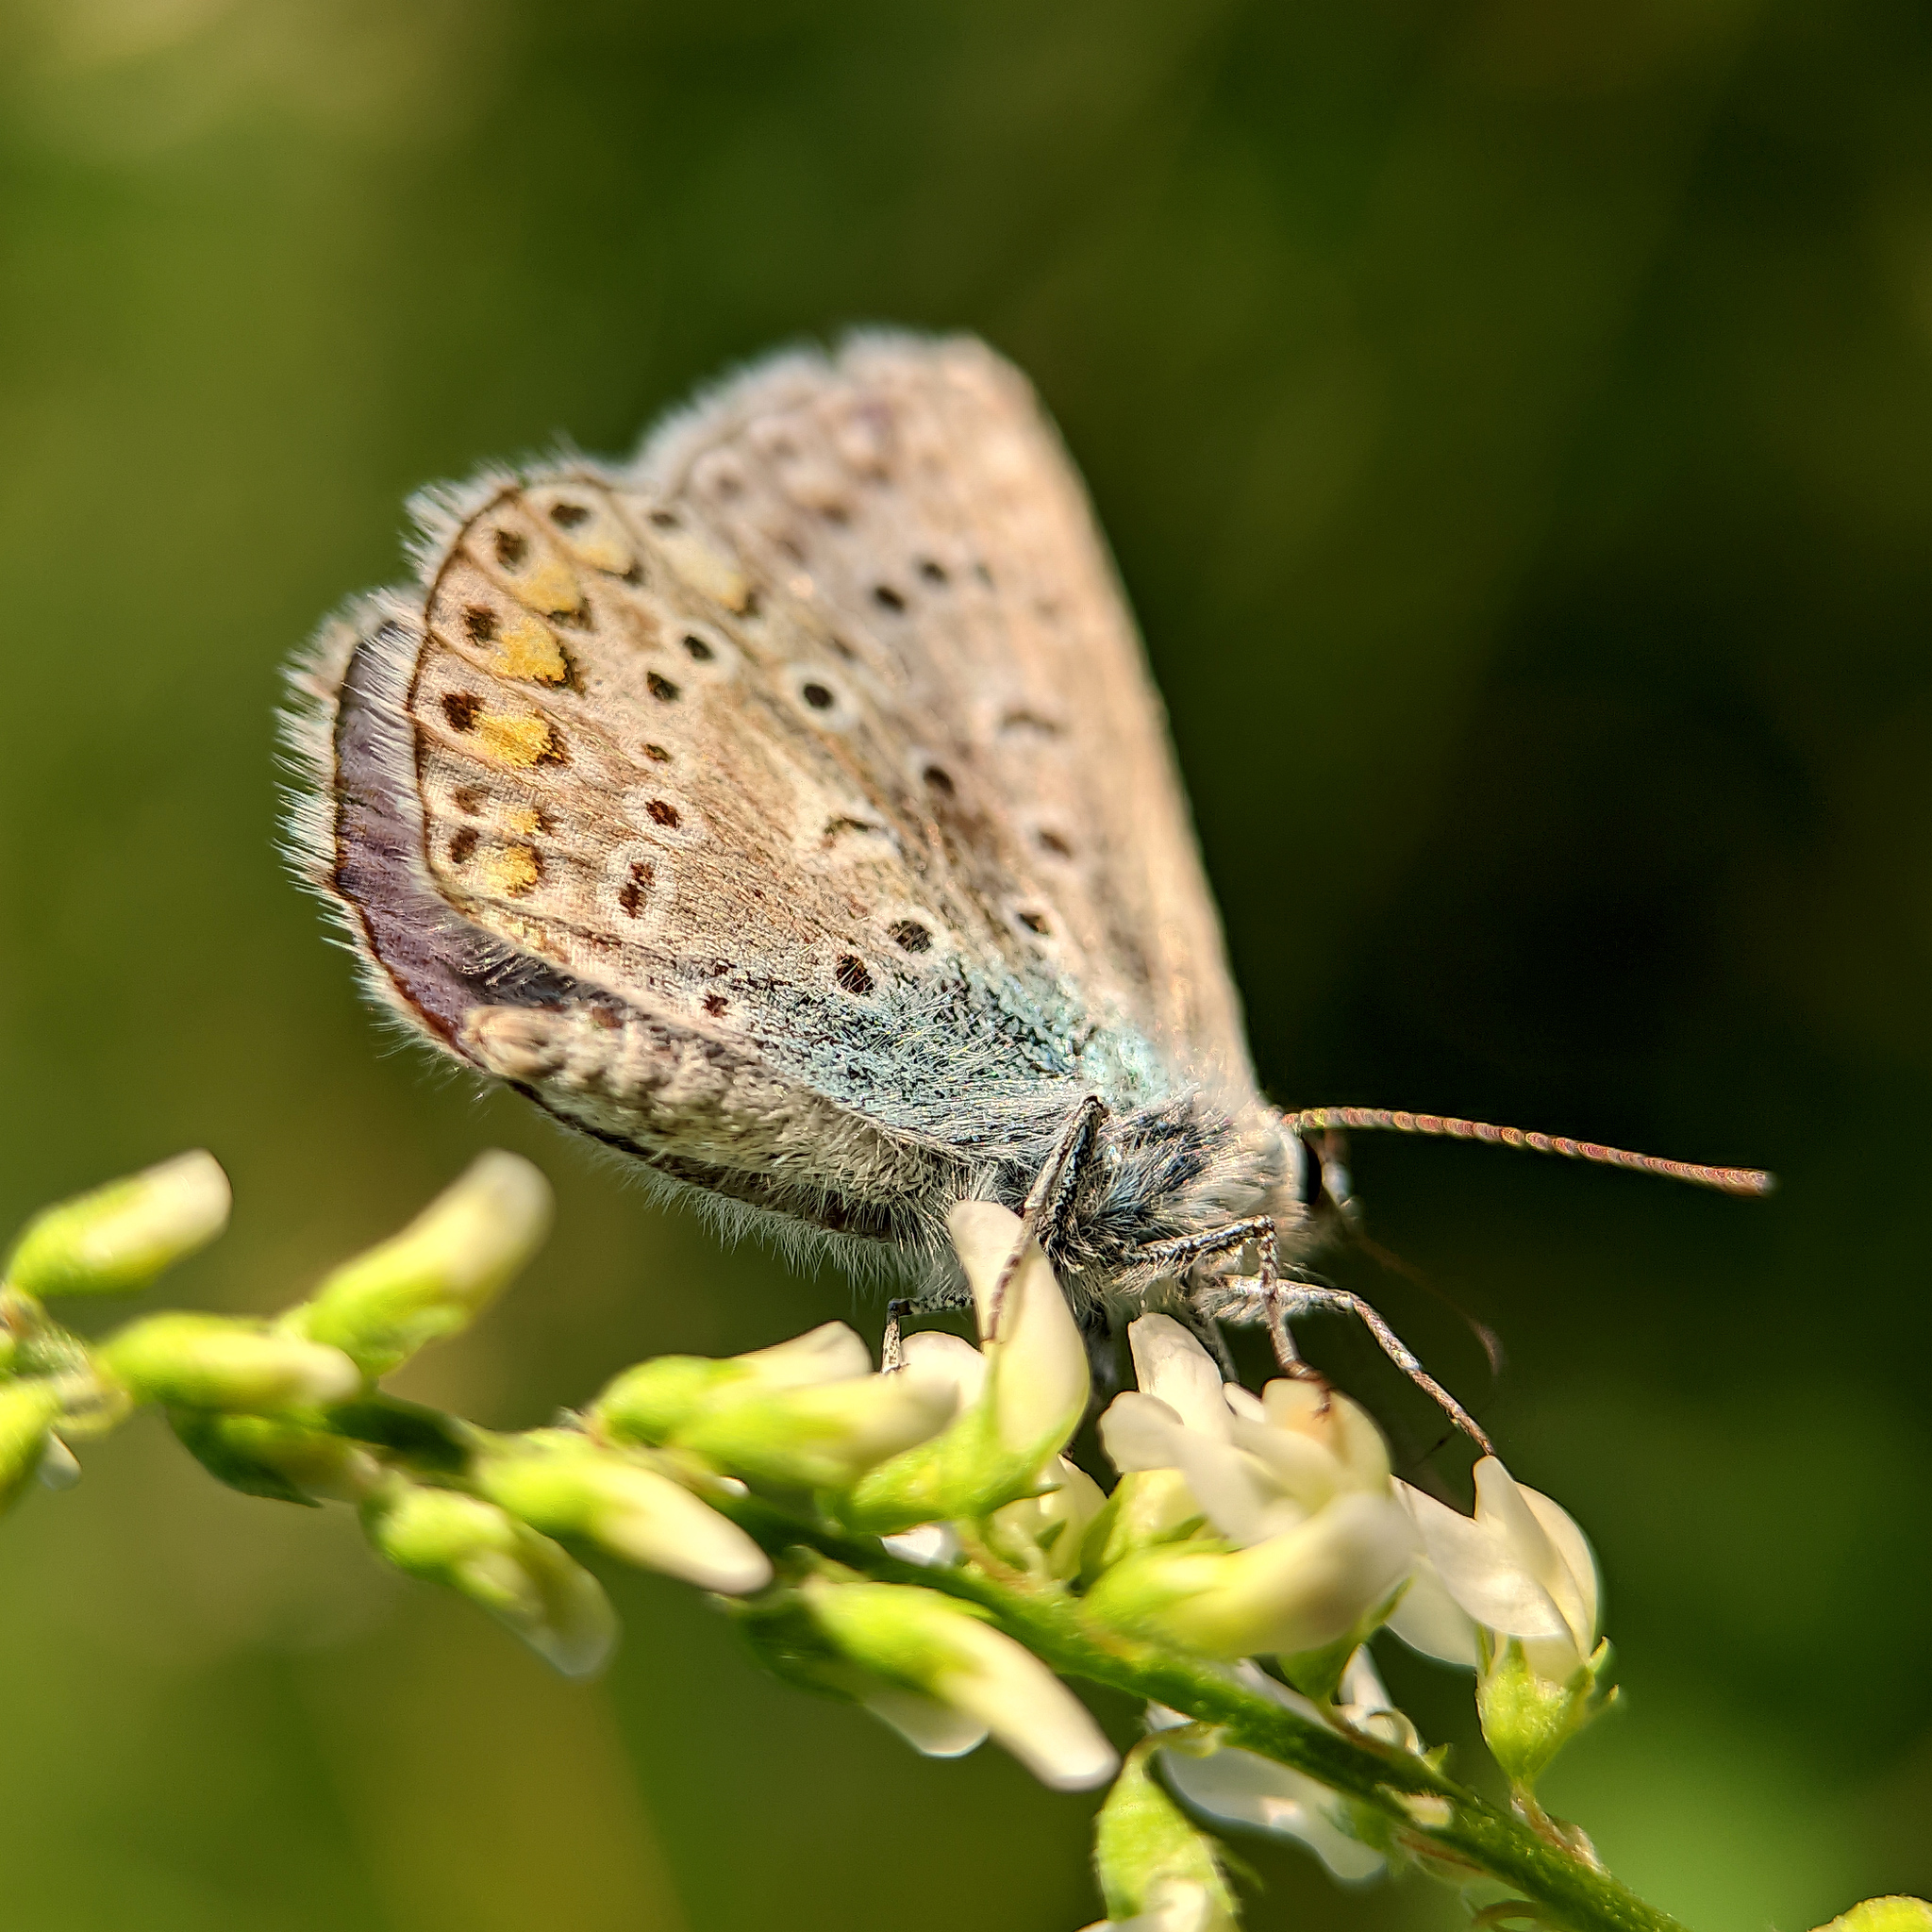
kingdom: Animalia
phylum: Arthropoda
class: Insecta
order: Lepidoptera
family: Lycaenidae
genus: Polyommatus
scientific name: Polyommatus icarus
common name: Common blue
